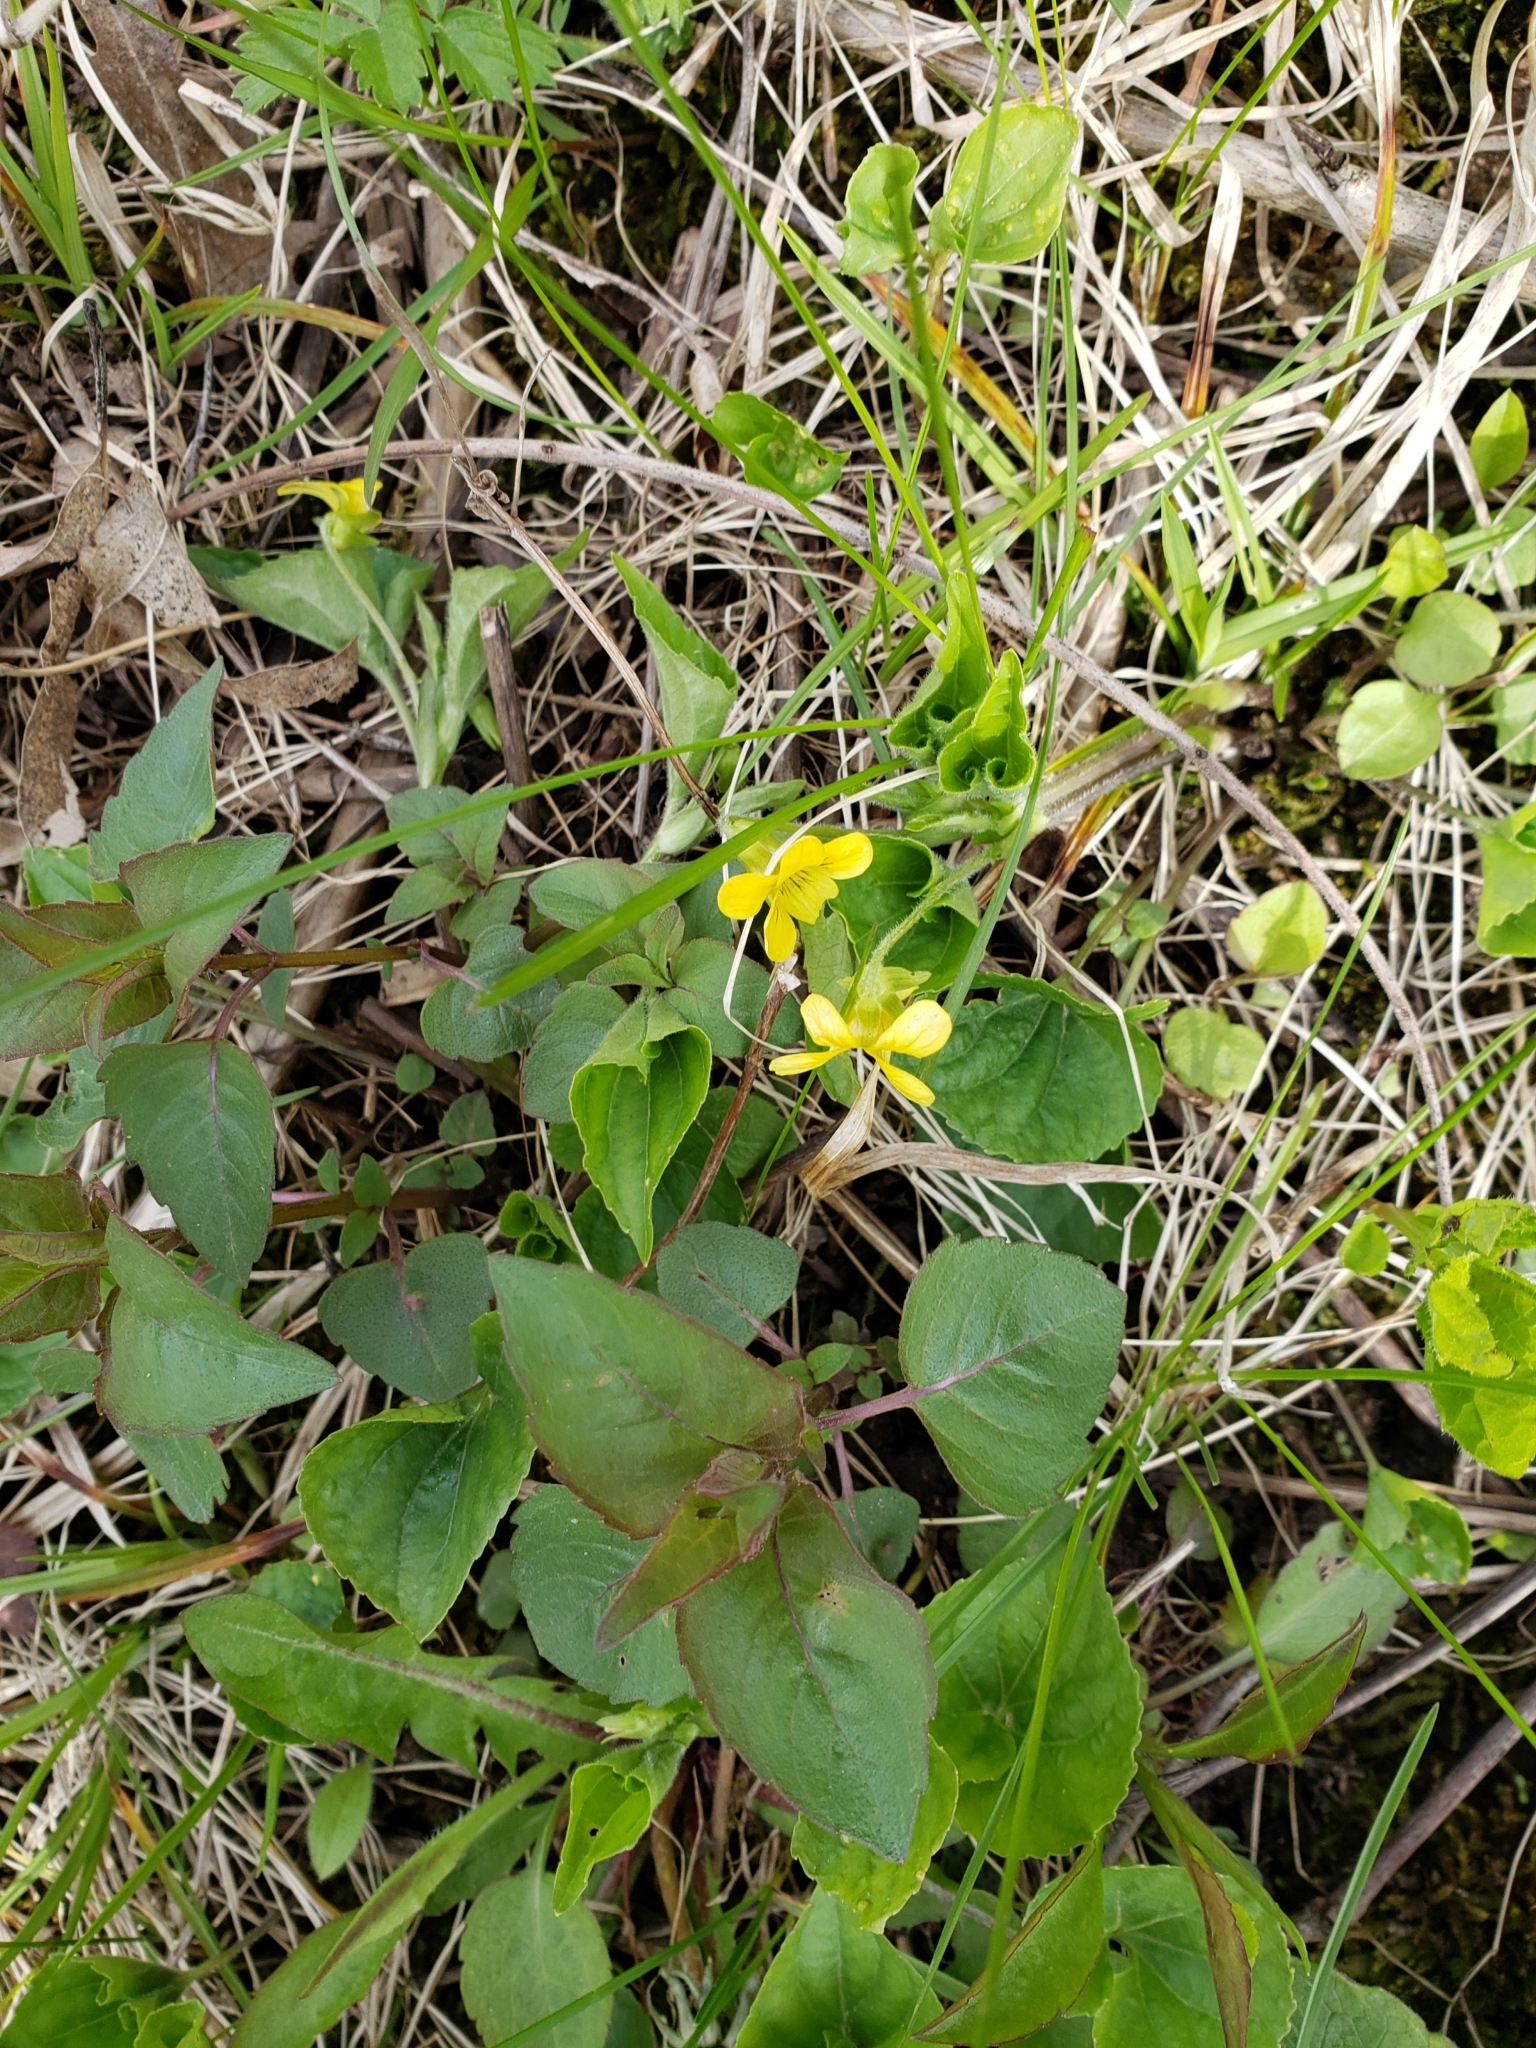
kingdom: Plantae
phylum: Tracheophyta
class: Magnoliopsida
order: Malpighiales
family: Violaceae
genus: Viola
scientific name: Viola eriocarpa
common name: Smooth yellow violet
